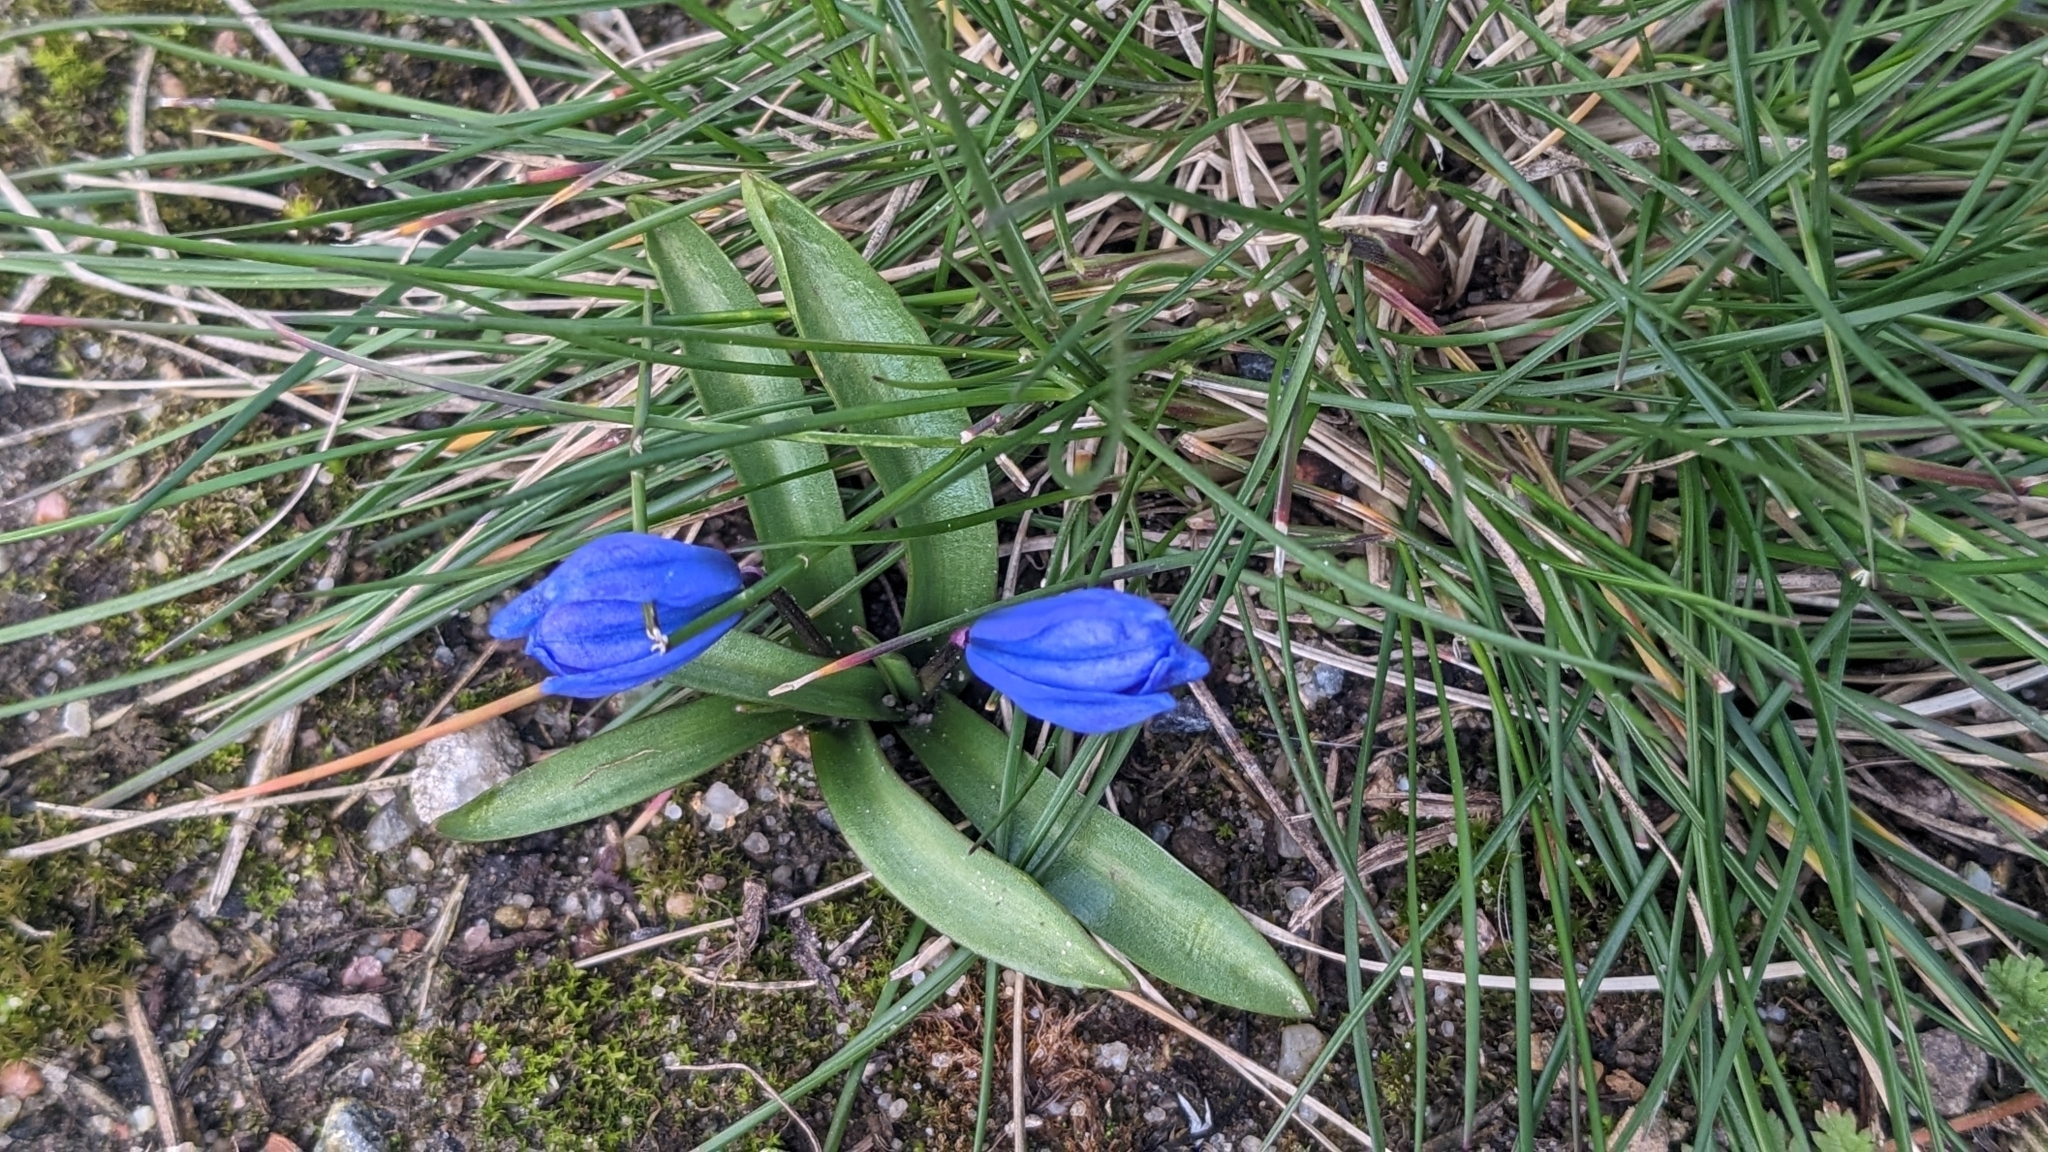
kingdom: Plantae
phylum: Tracheophyta
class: Liliopsida
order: Asparagales
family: Asparagaceae
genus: Scilla
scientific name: Scilla siberica
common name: Siberian squill
